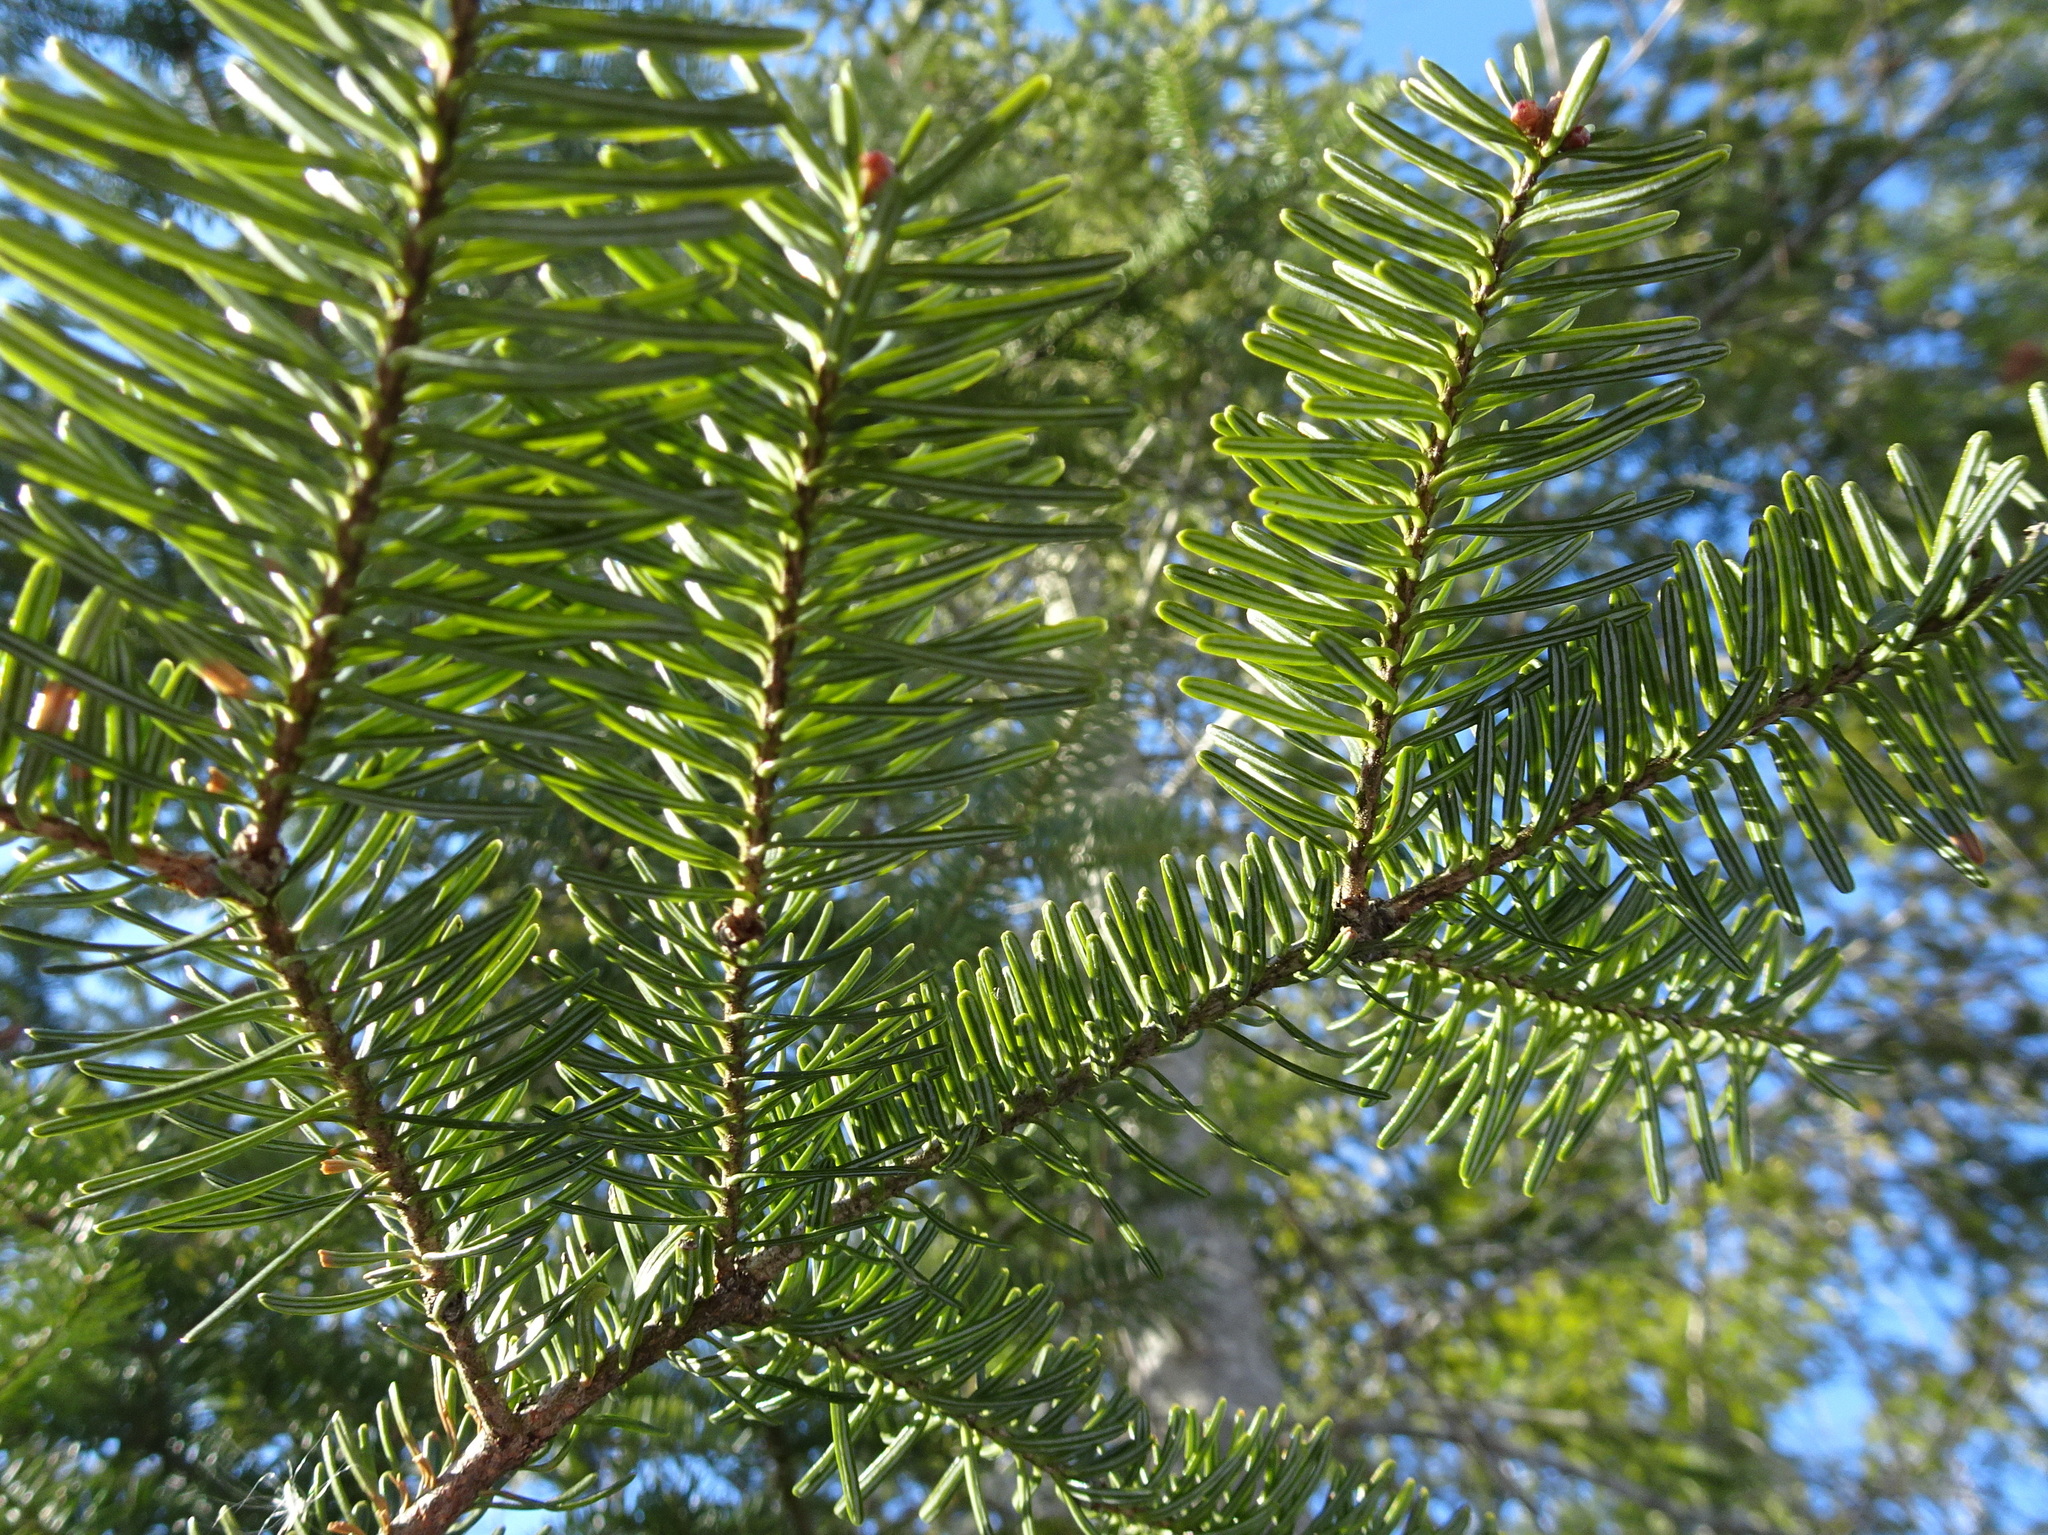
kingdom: Plantae
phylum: Tracheophyta
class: Pinopsida
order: Pinales
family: Pinaceae
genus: Abies
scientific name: Abies balsamea
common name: Balsam fir
